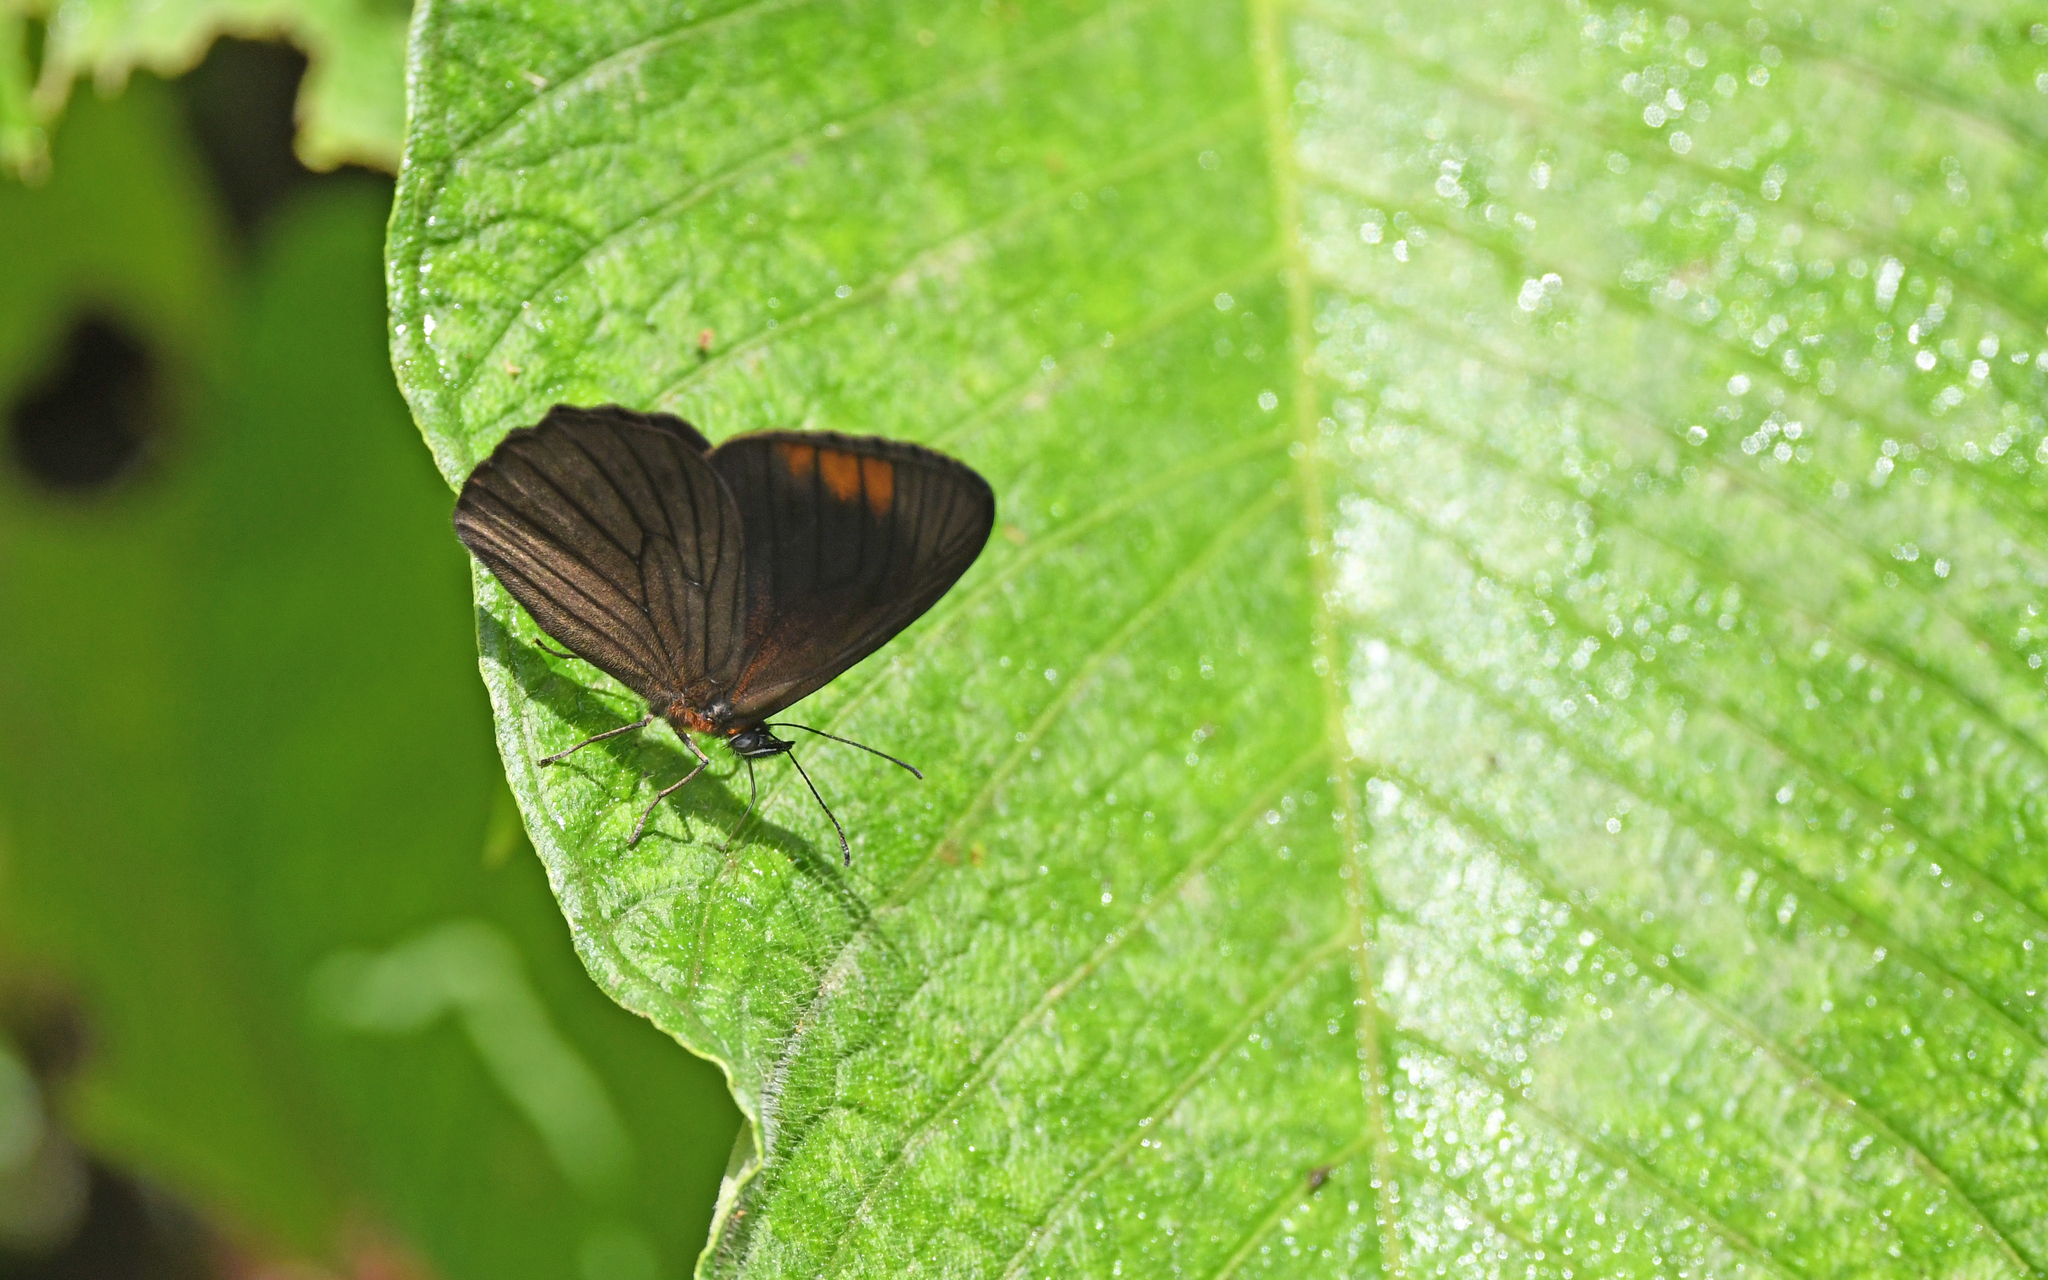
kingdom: Animalia
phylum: Arthropoda
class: Insecta
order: Lepidoptera
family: Nymphalidae
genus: Lymanopoda
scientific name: Lymanopoda venosa
